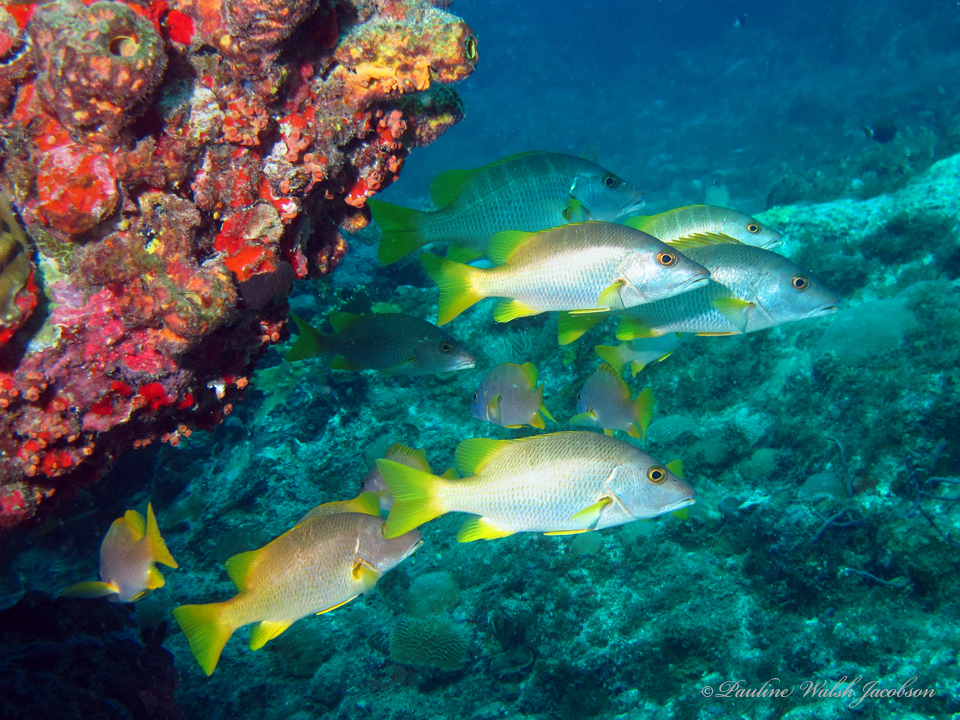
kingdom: Animalia
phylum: Chordata
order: Perciformes
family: Lutjanidae
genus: Lutjanus
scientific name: Lutjanus apodus
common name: Schoolmaster
